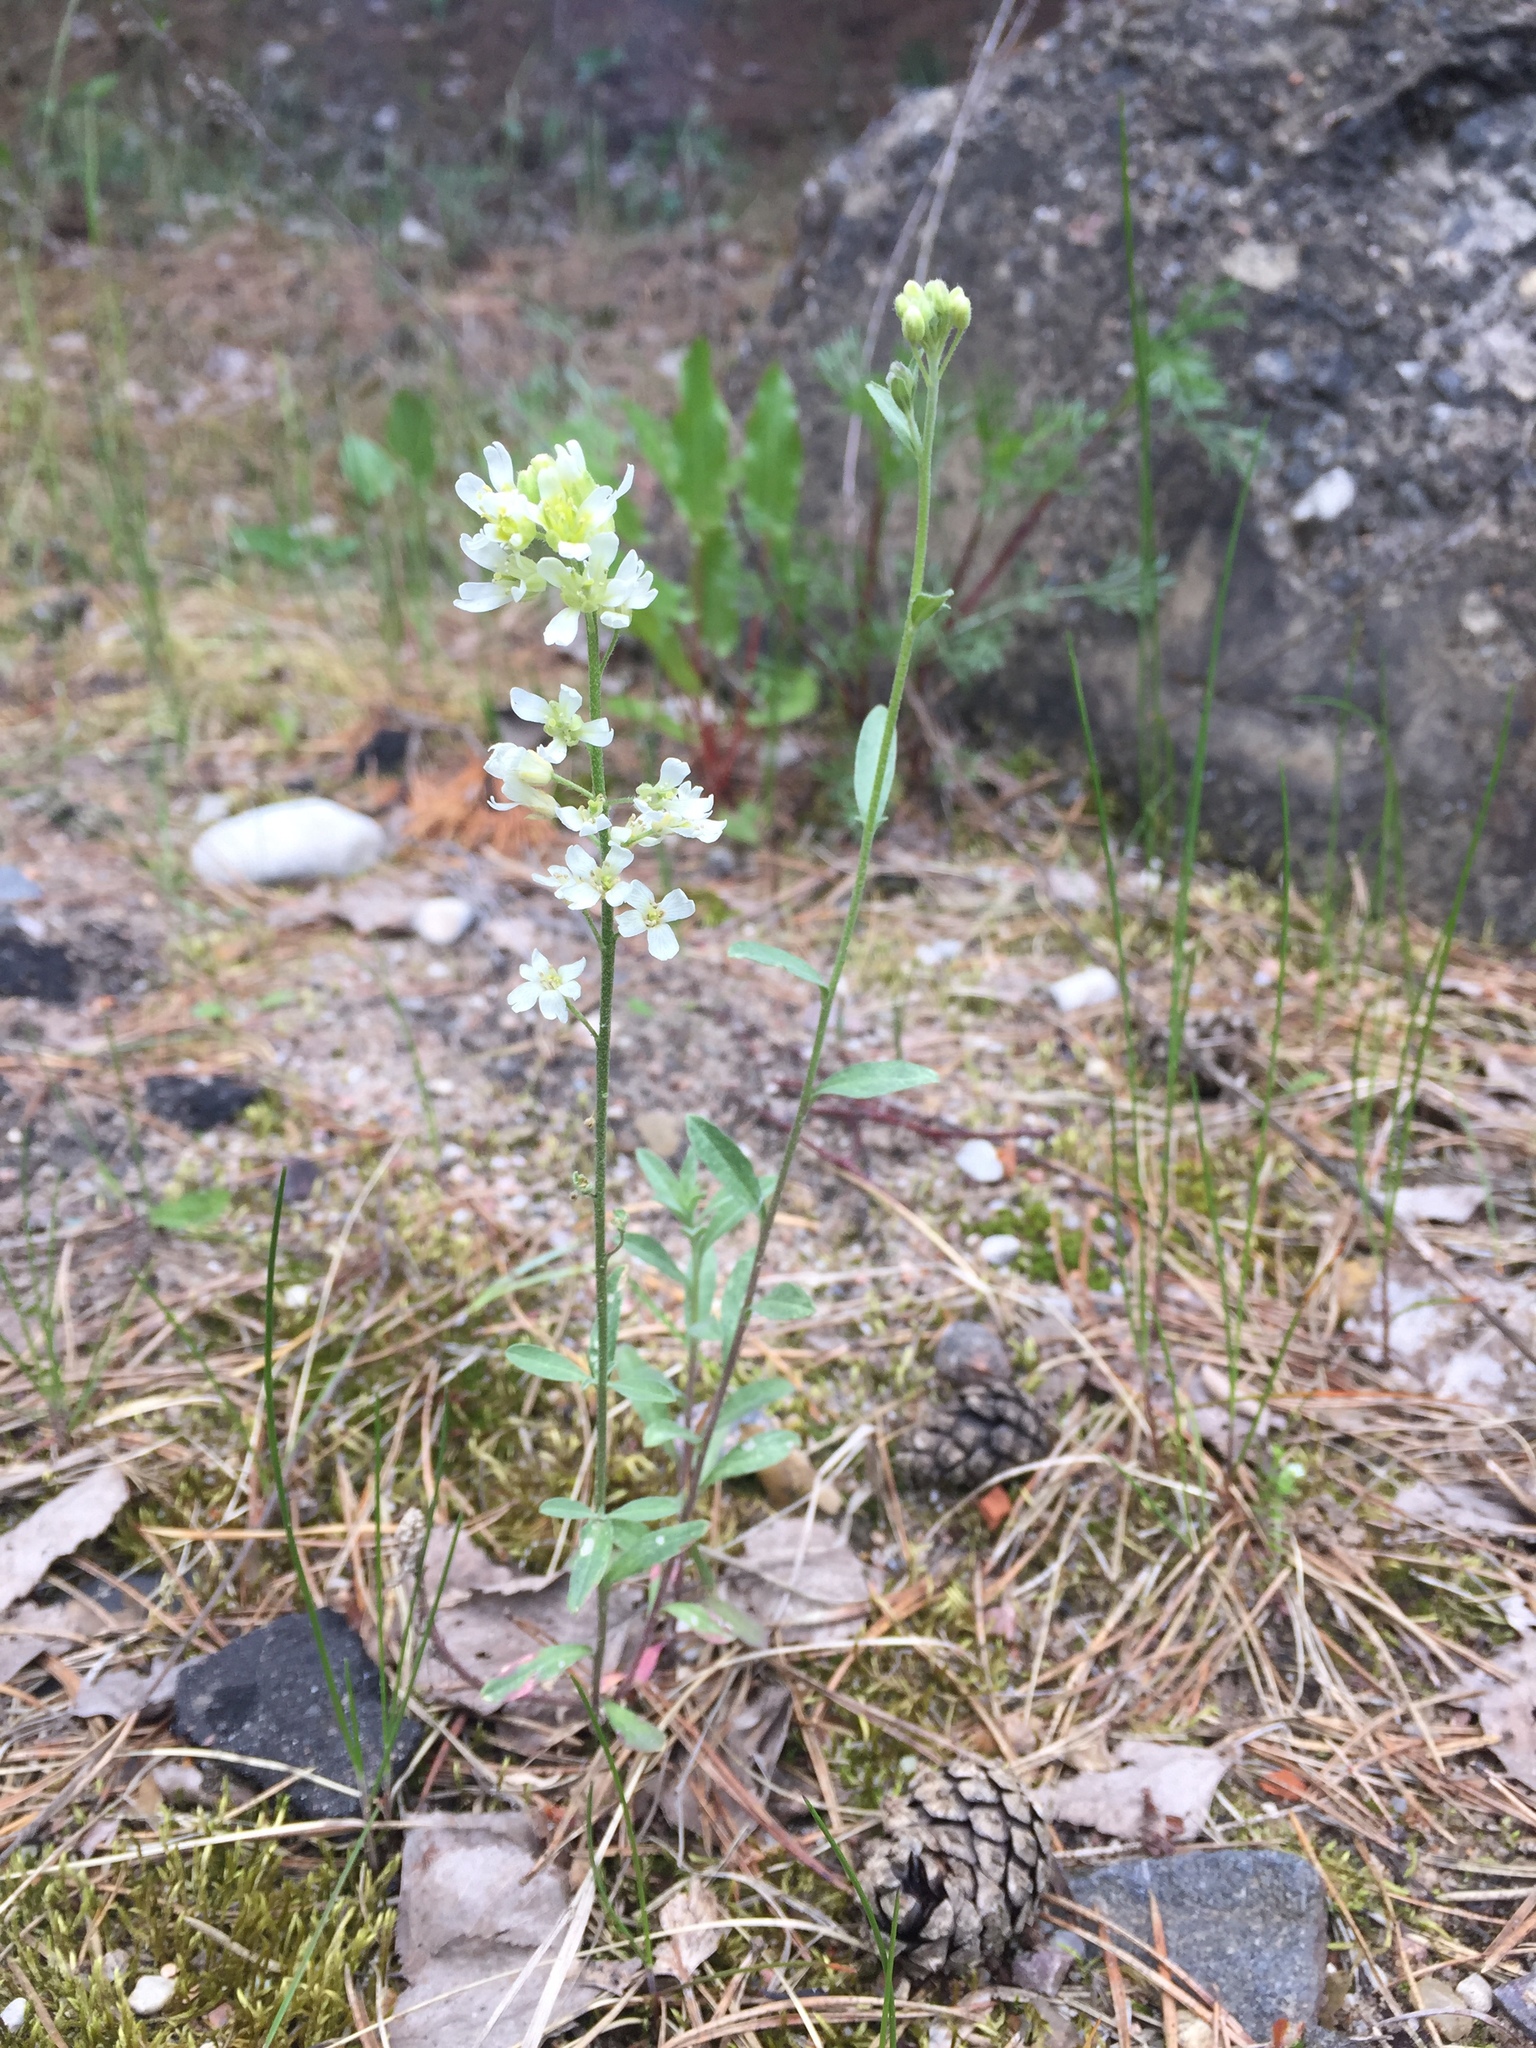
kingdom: Plantae
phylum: Tracheophyta
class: Magnoliopsida
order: Brassicales
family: Brassicaceae
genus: Berteroa
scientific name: Berteroa incana
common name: Hoary alison
